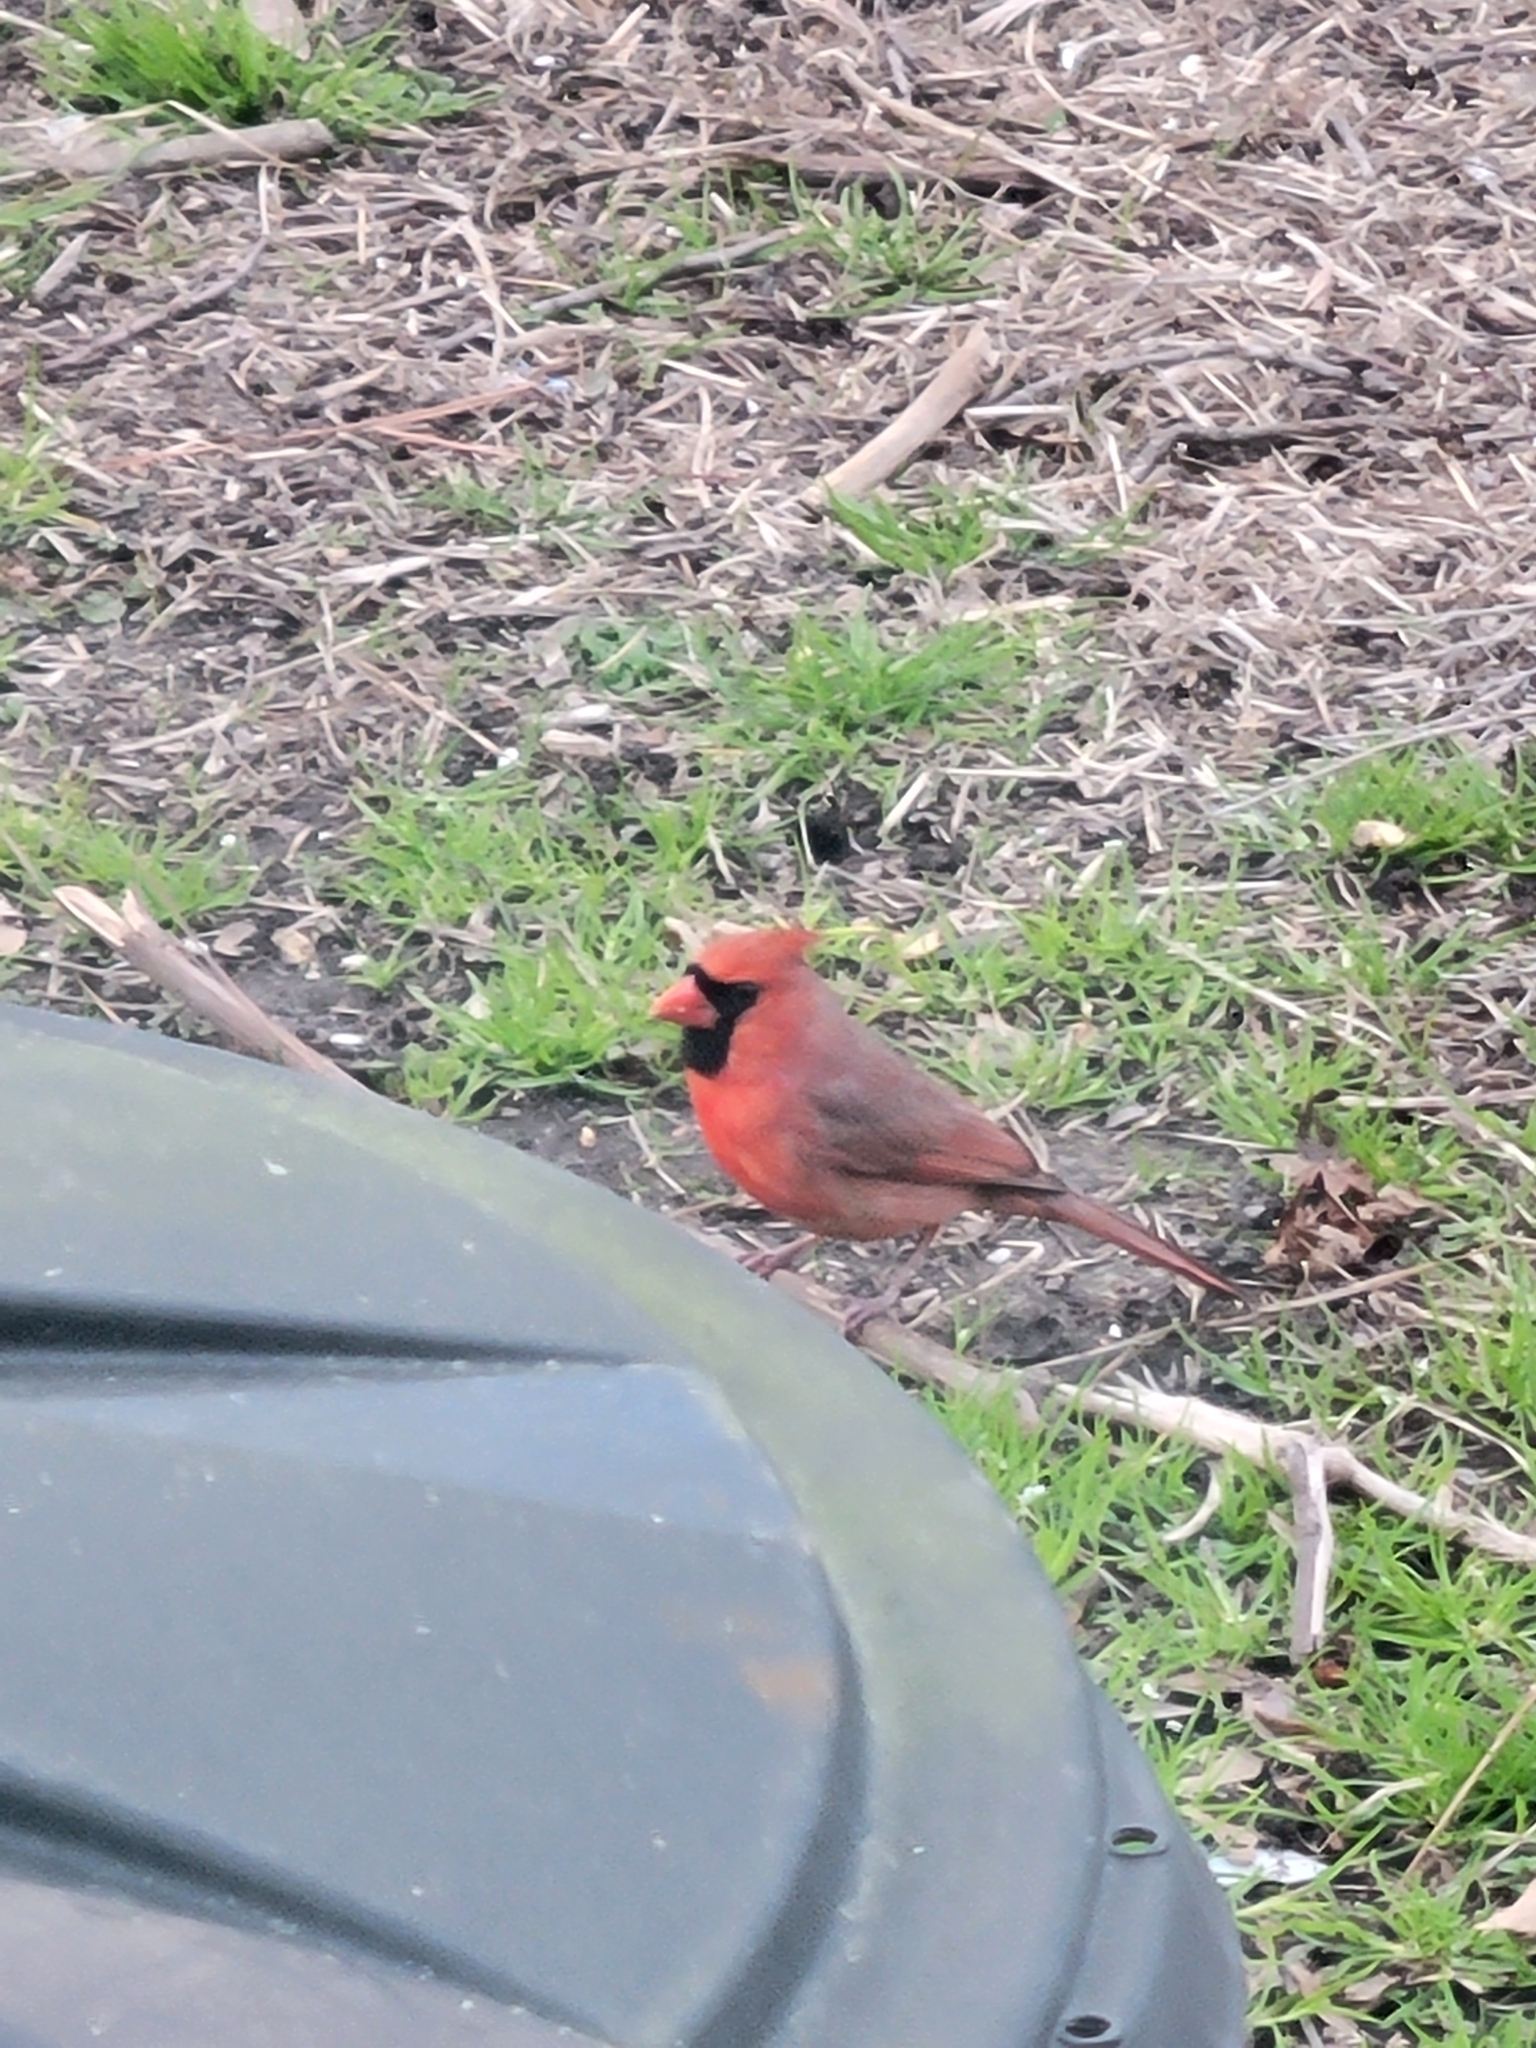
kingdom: Animalia
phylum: Chordata
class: Aves
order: Passeriformes
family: Cardinalidae
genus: Cardinalis
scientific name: Cardinalis cardinalis
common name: Northern cardinal
